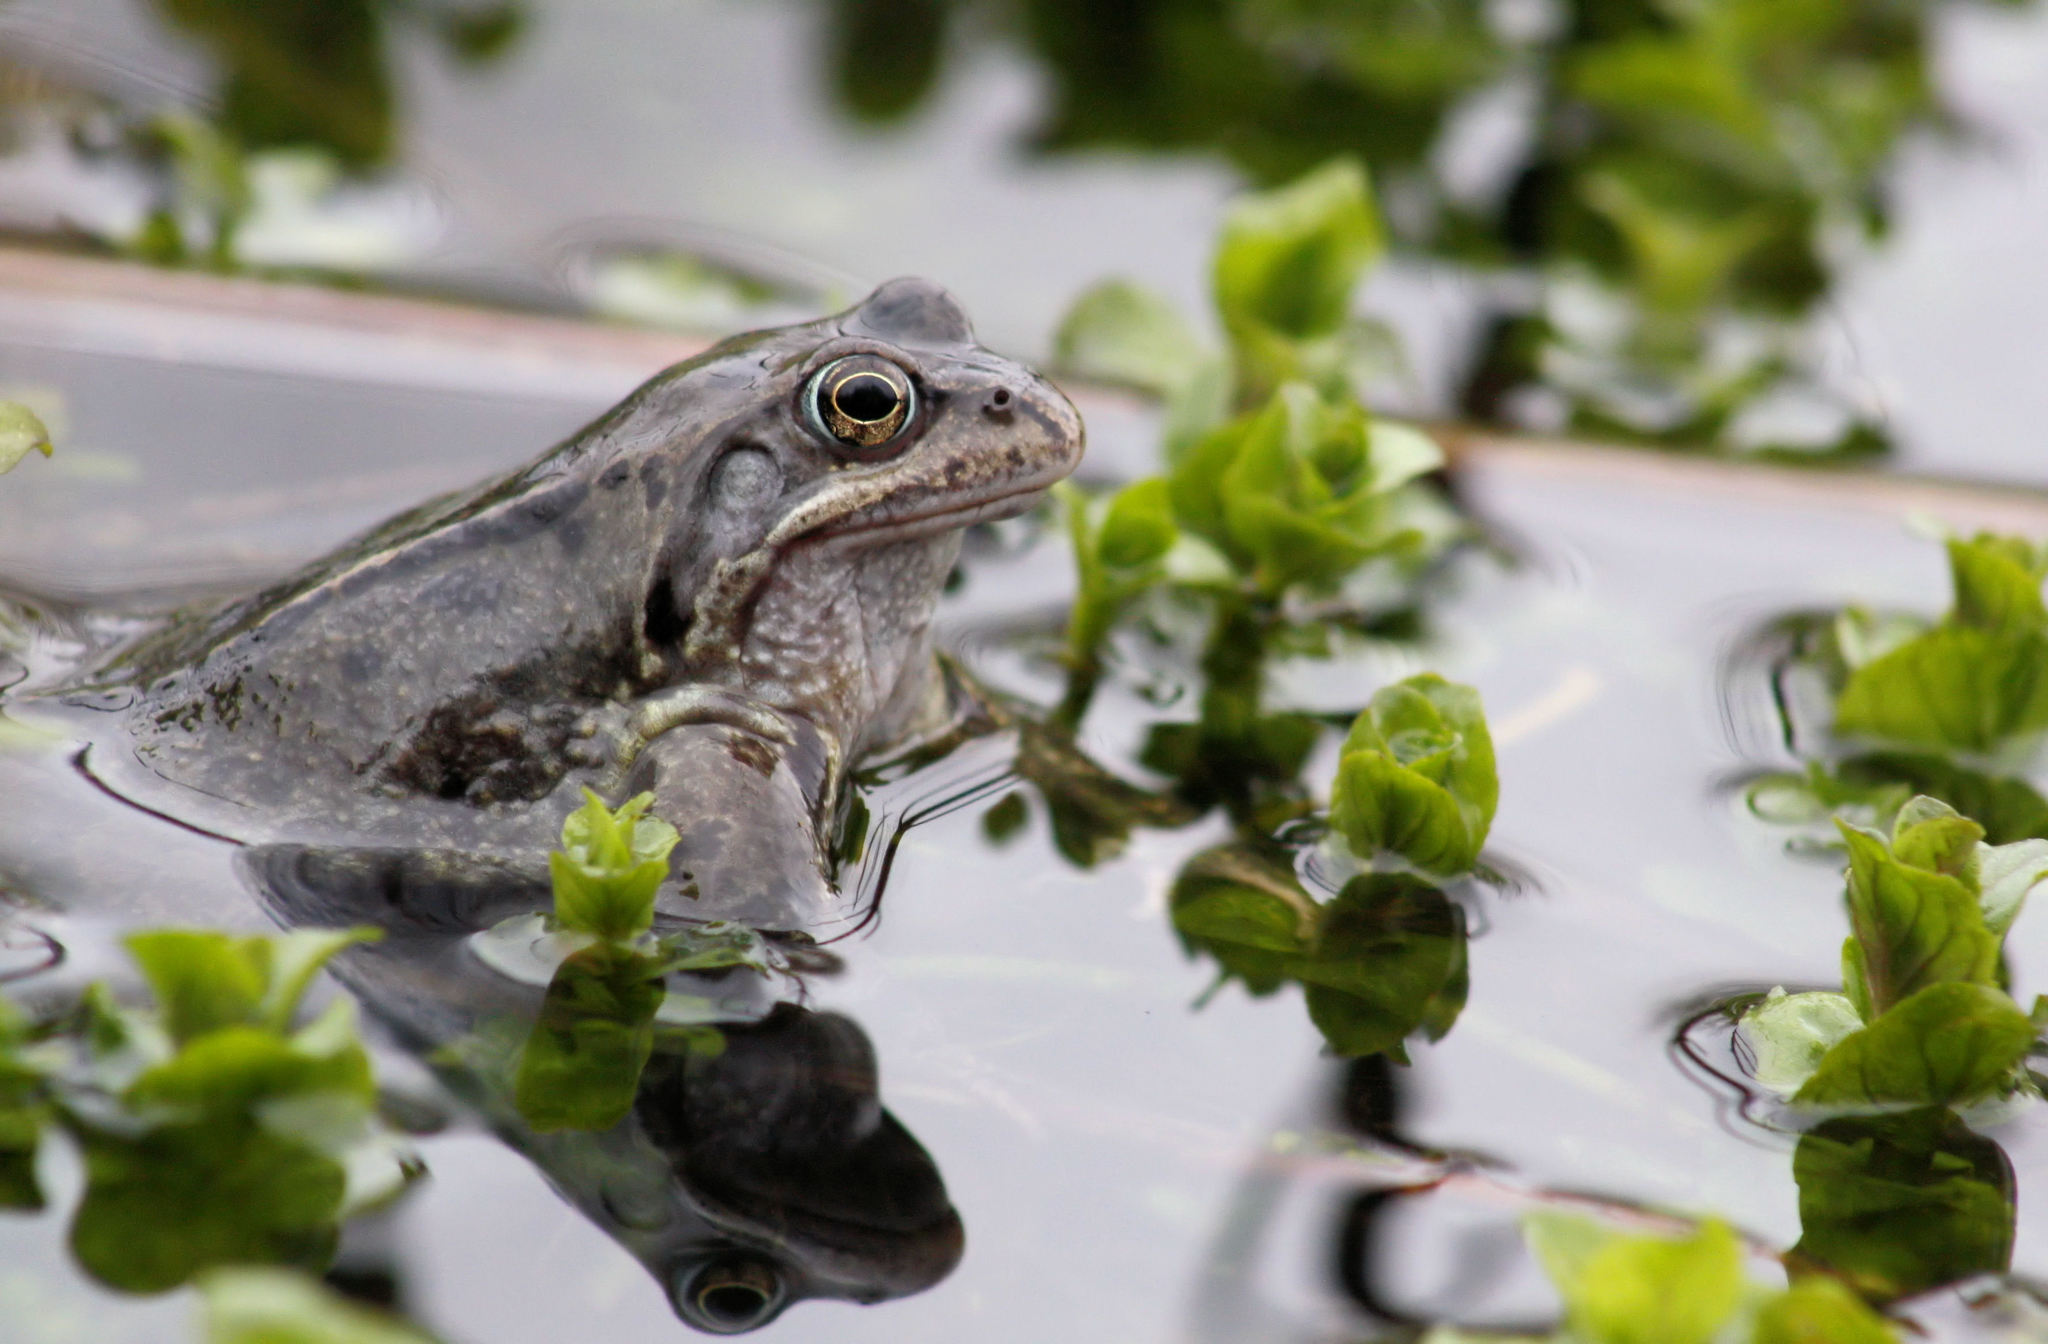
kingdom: Animalia
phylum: Chordata
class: Amphibia
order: Anura
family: Ranidae
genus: Rana
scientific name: Rana temporaria
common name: Common frog
